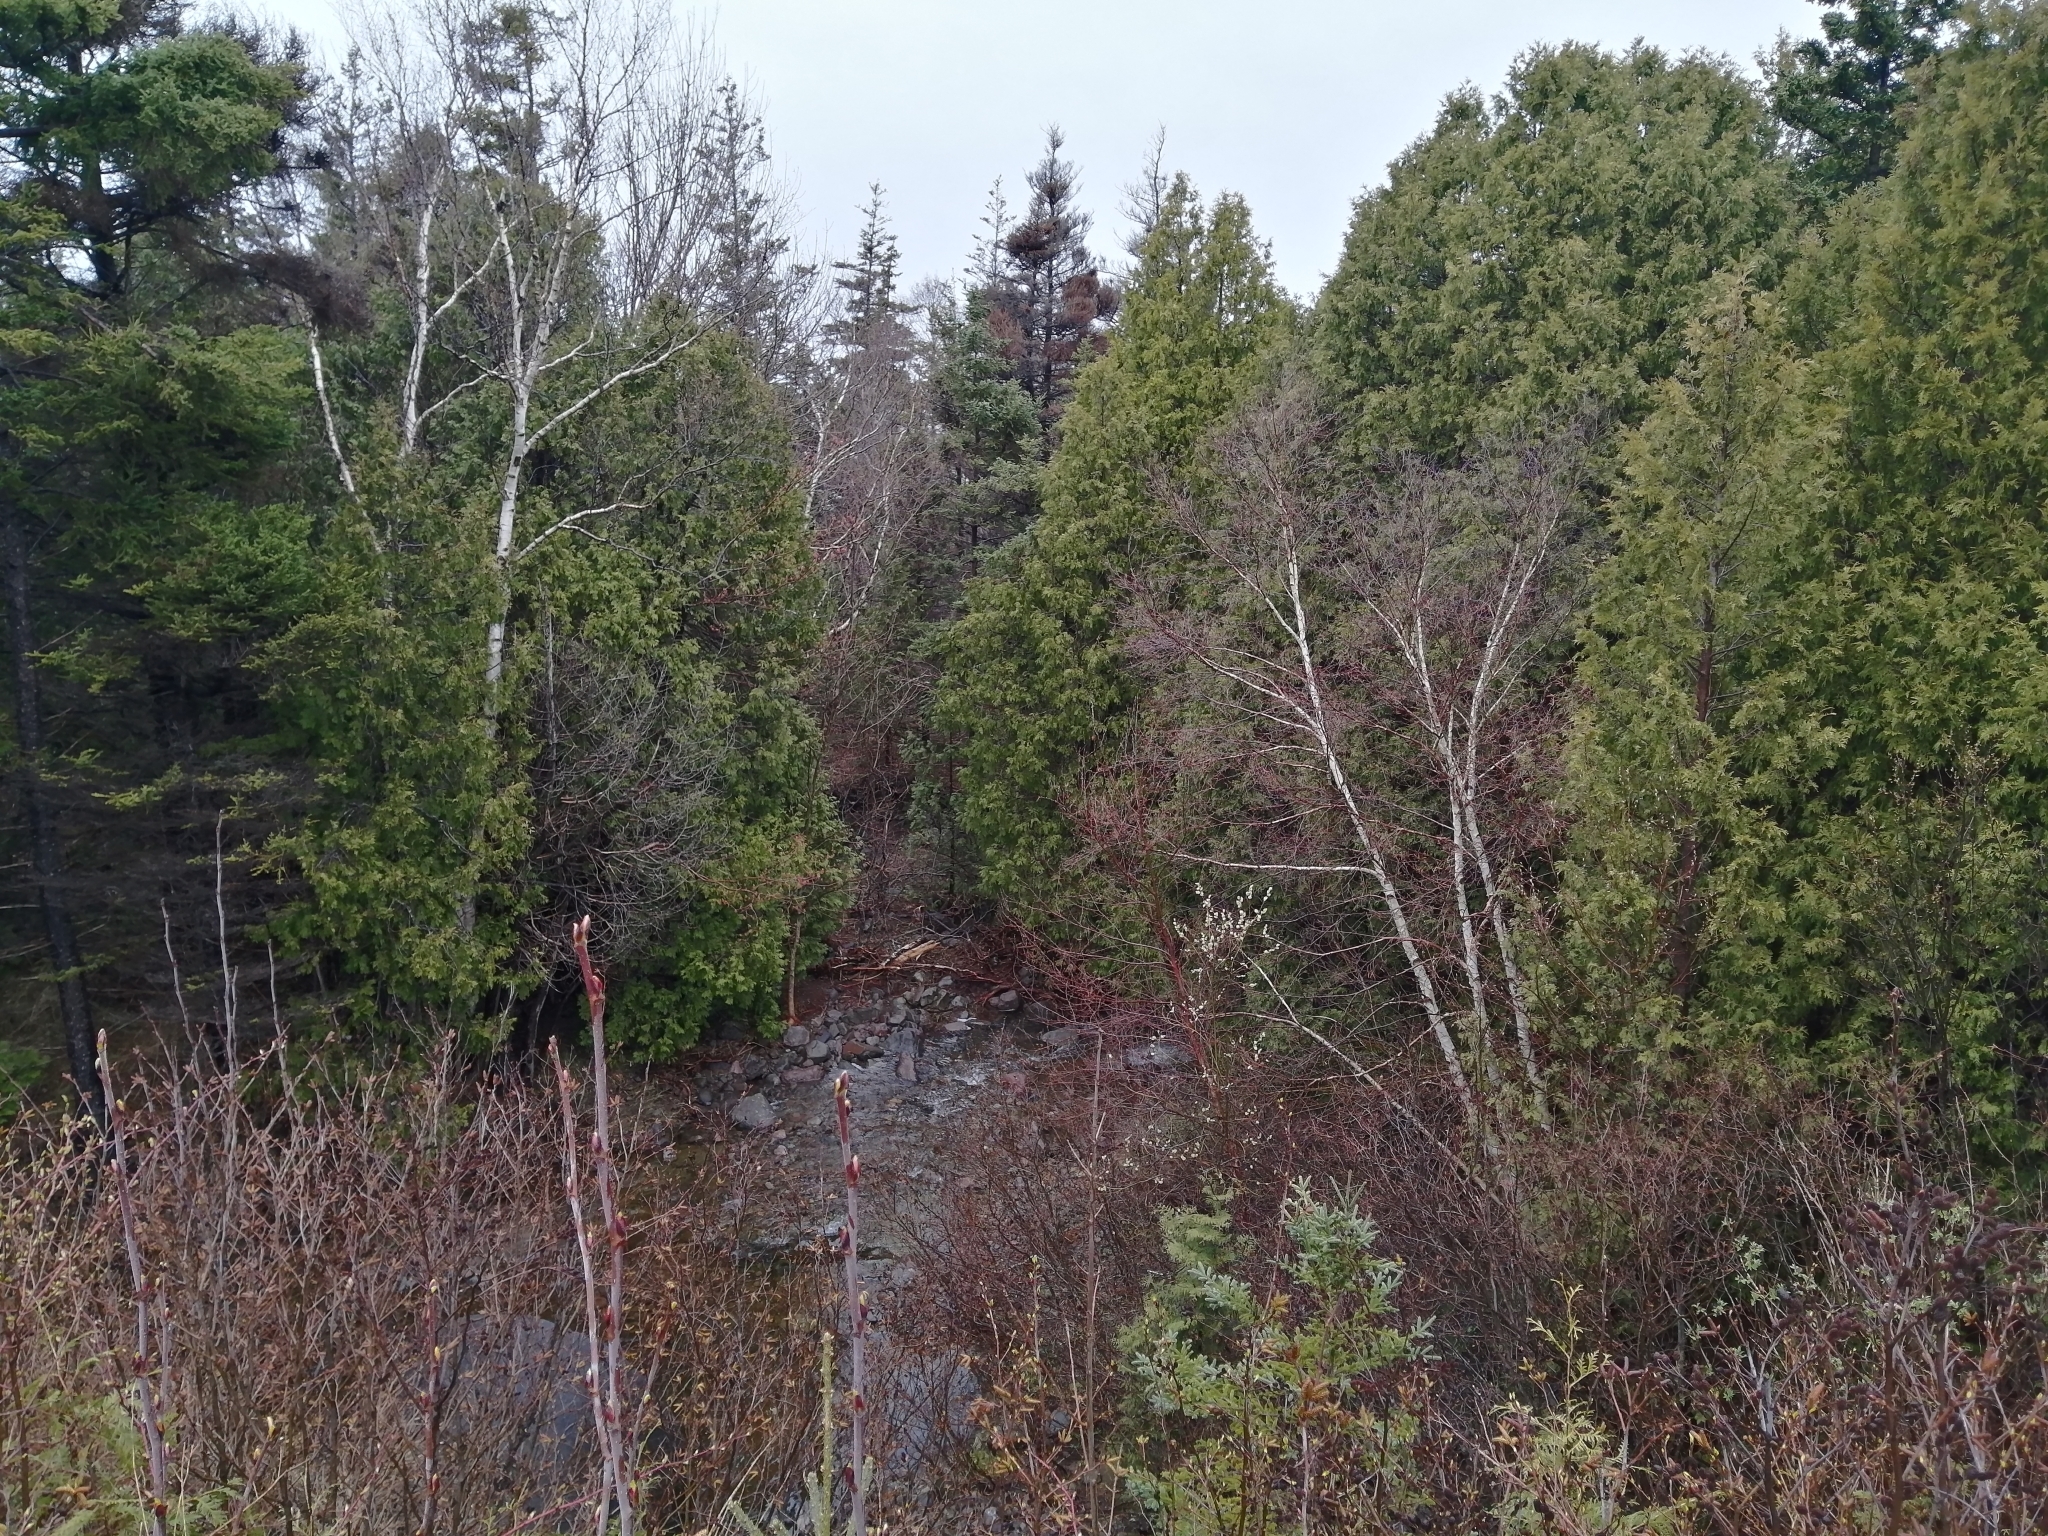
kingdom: Plantae
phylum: Tracheophyta
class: Pinopsida
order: Pinales
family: Cupressaceae
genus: Thuja
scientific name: Thuja occidentalis
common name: Northern white-cedar
